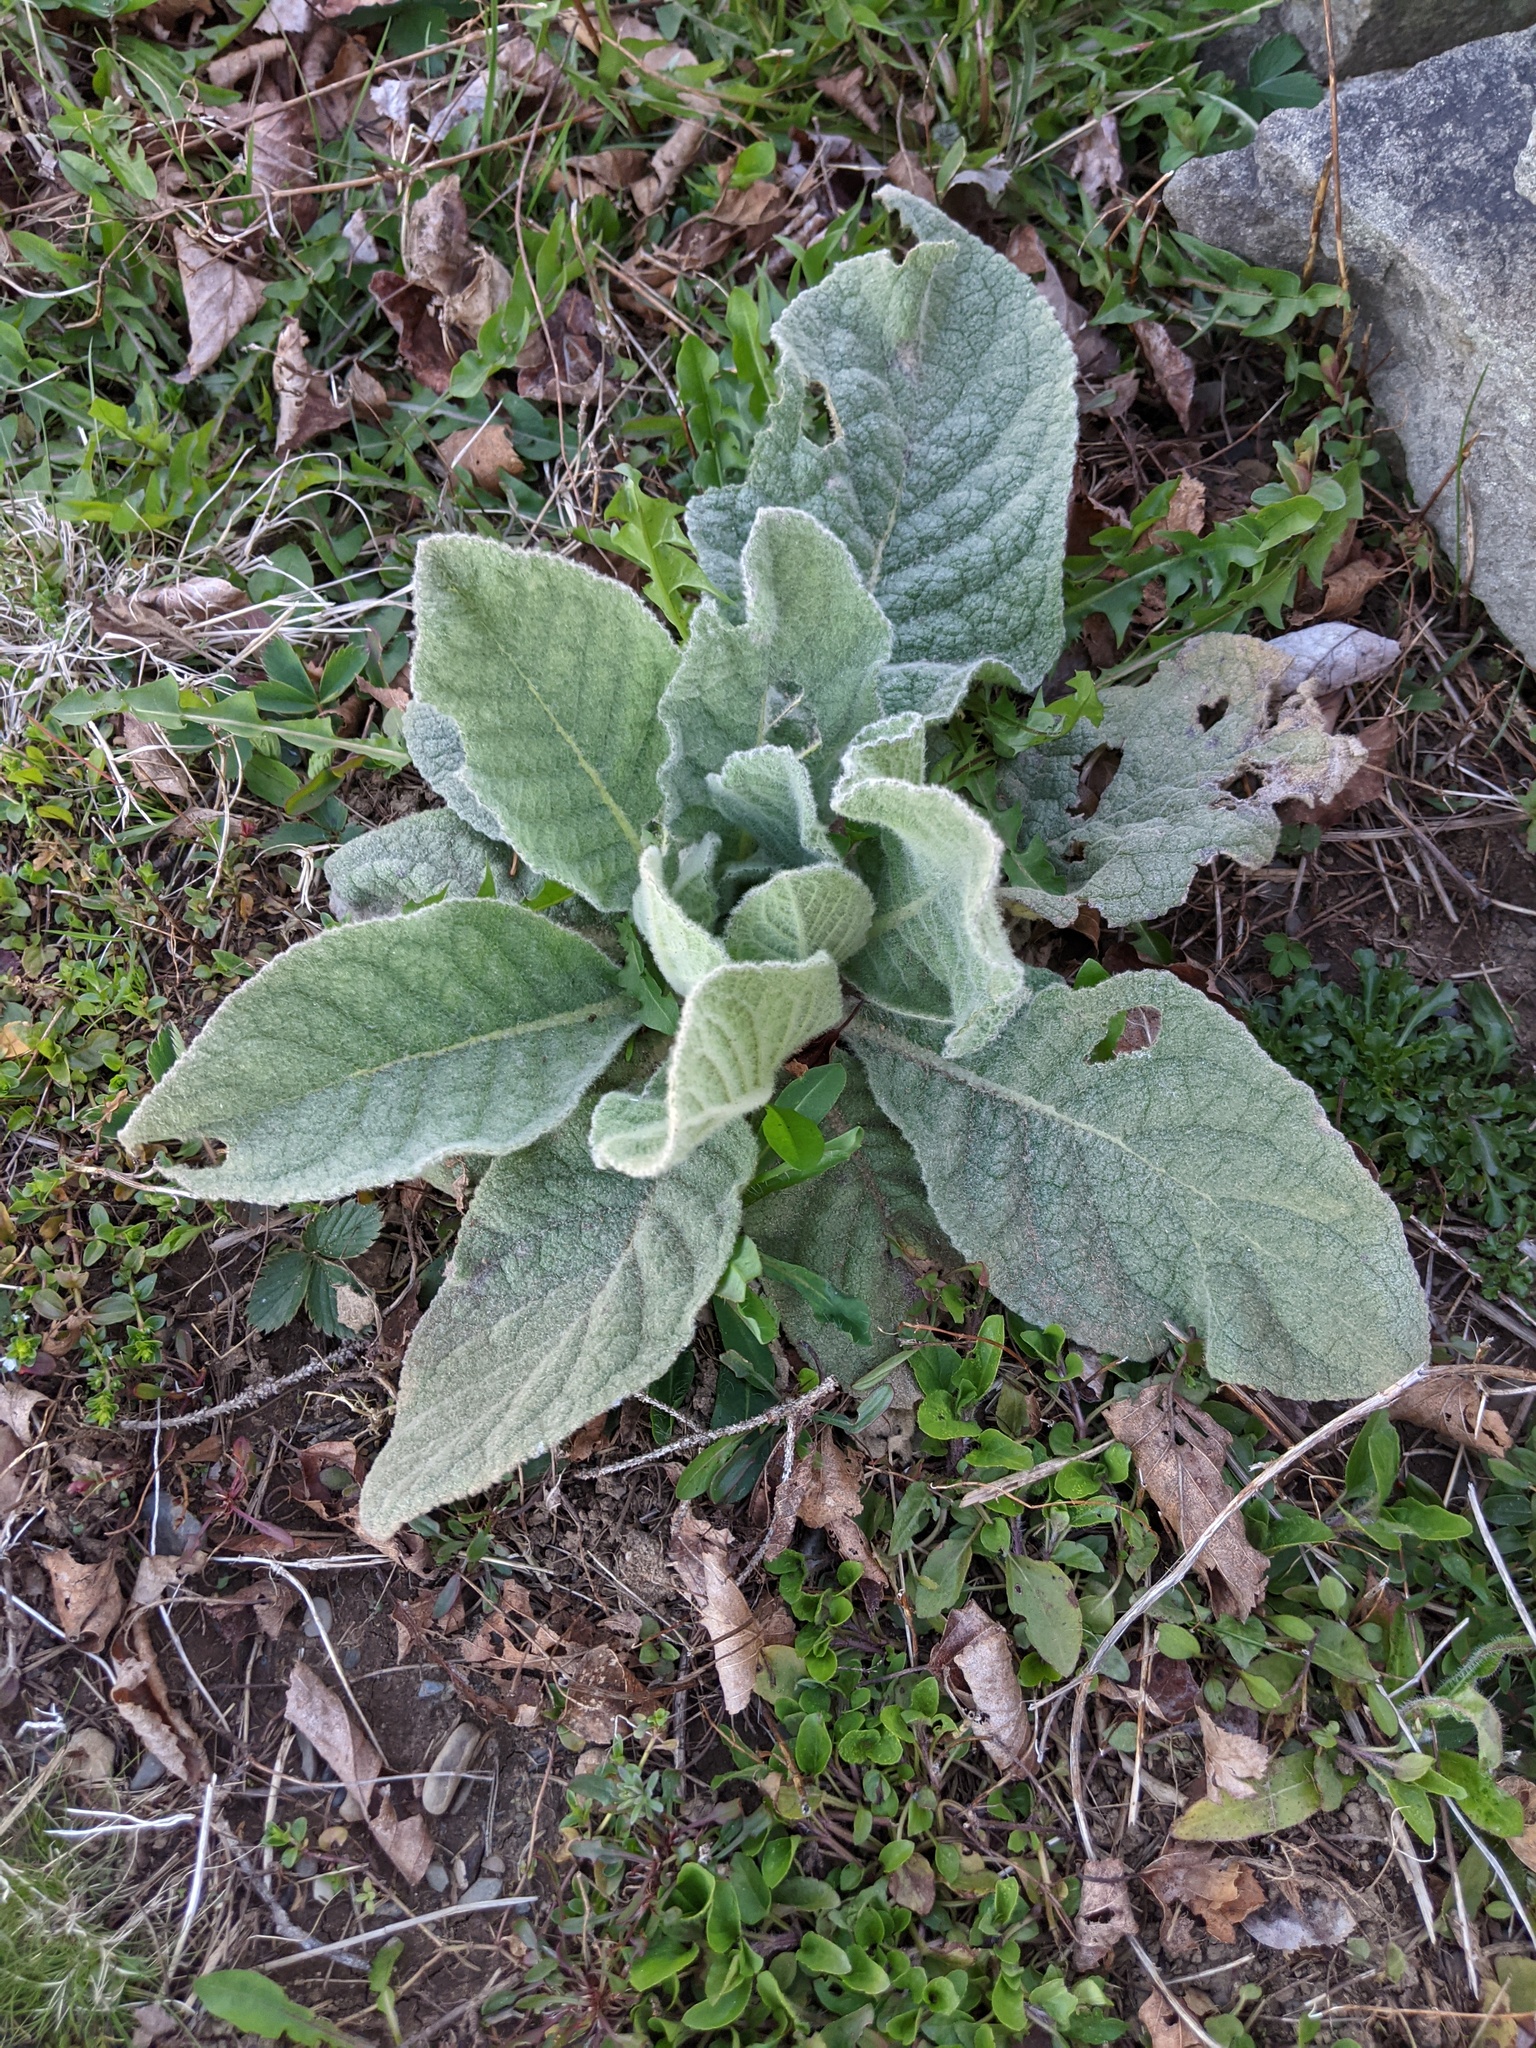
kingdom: Plantae
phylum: Tracheophyta
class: Magnoliopsida
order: Lamiales
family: Scrophulariaceae
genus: Verbascum
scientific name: Verbascum thapsus
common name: Common mullein
